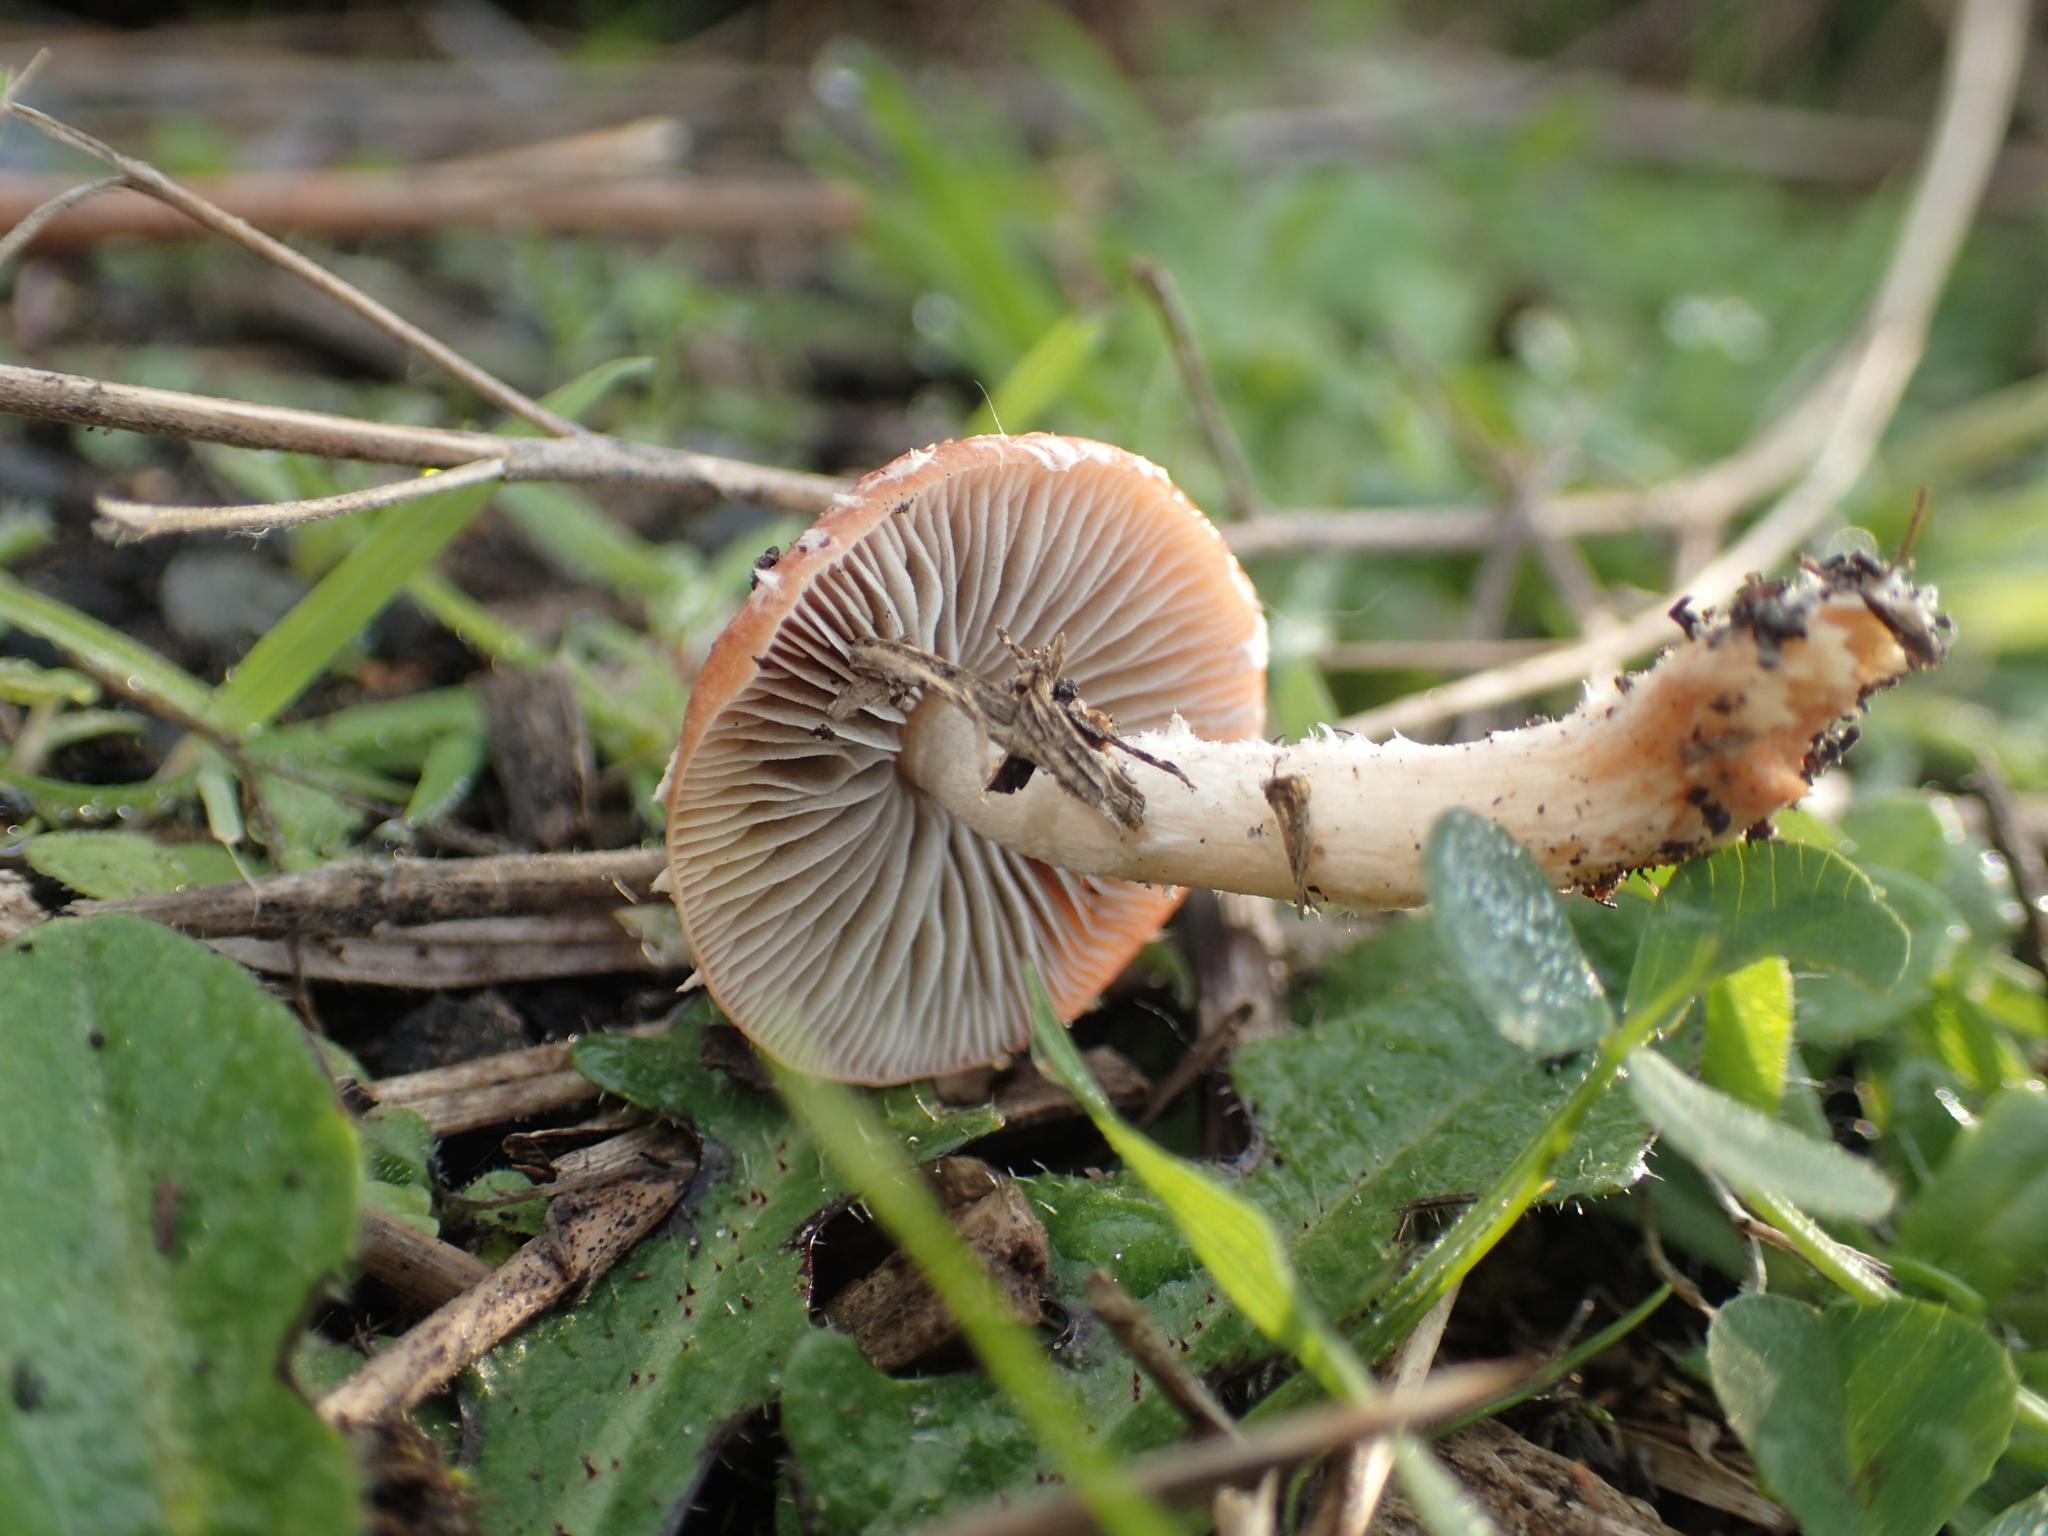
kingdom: Fungi
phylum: Basidiomycota
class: Agaricomycetes
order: Agaricales
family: Strophariaceae
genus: Leratiomyces
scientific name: Leratiomyces ceres
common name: Redlead roundhead
